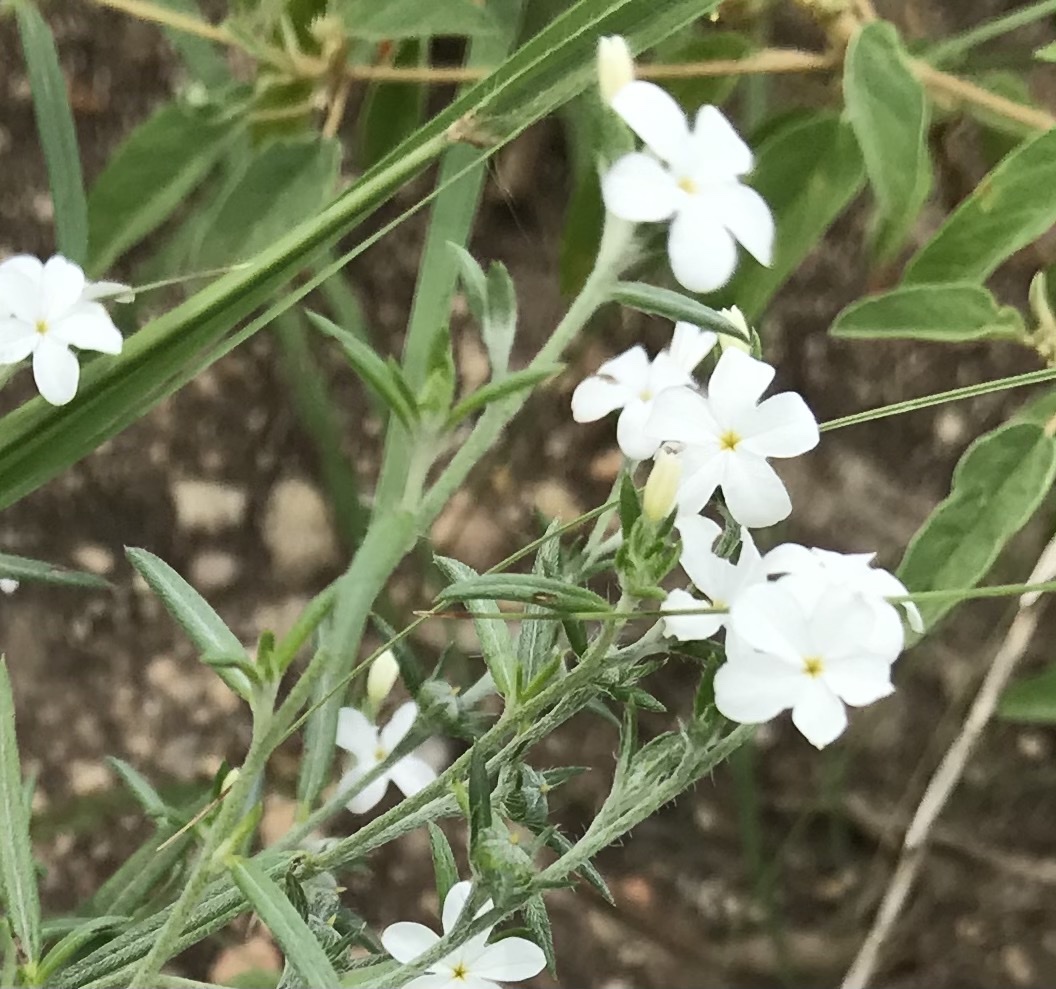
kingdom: Plantae
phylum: Tracheophyta
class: Magnoliopsida
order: Boraginales
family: Heliotropiaceae
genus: Euploca
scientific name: Euploca tenella
